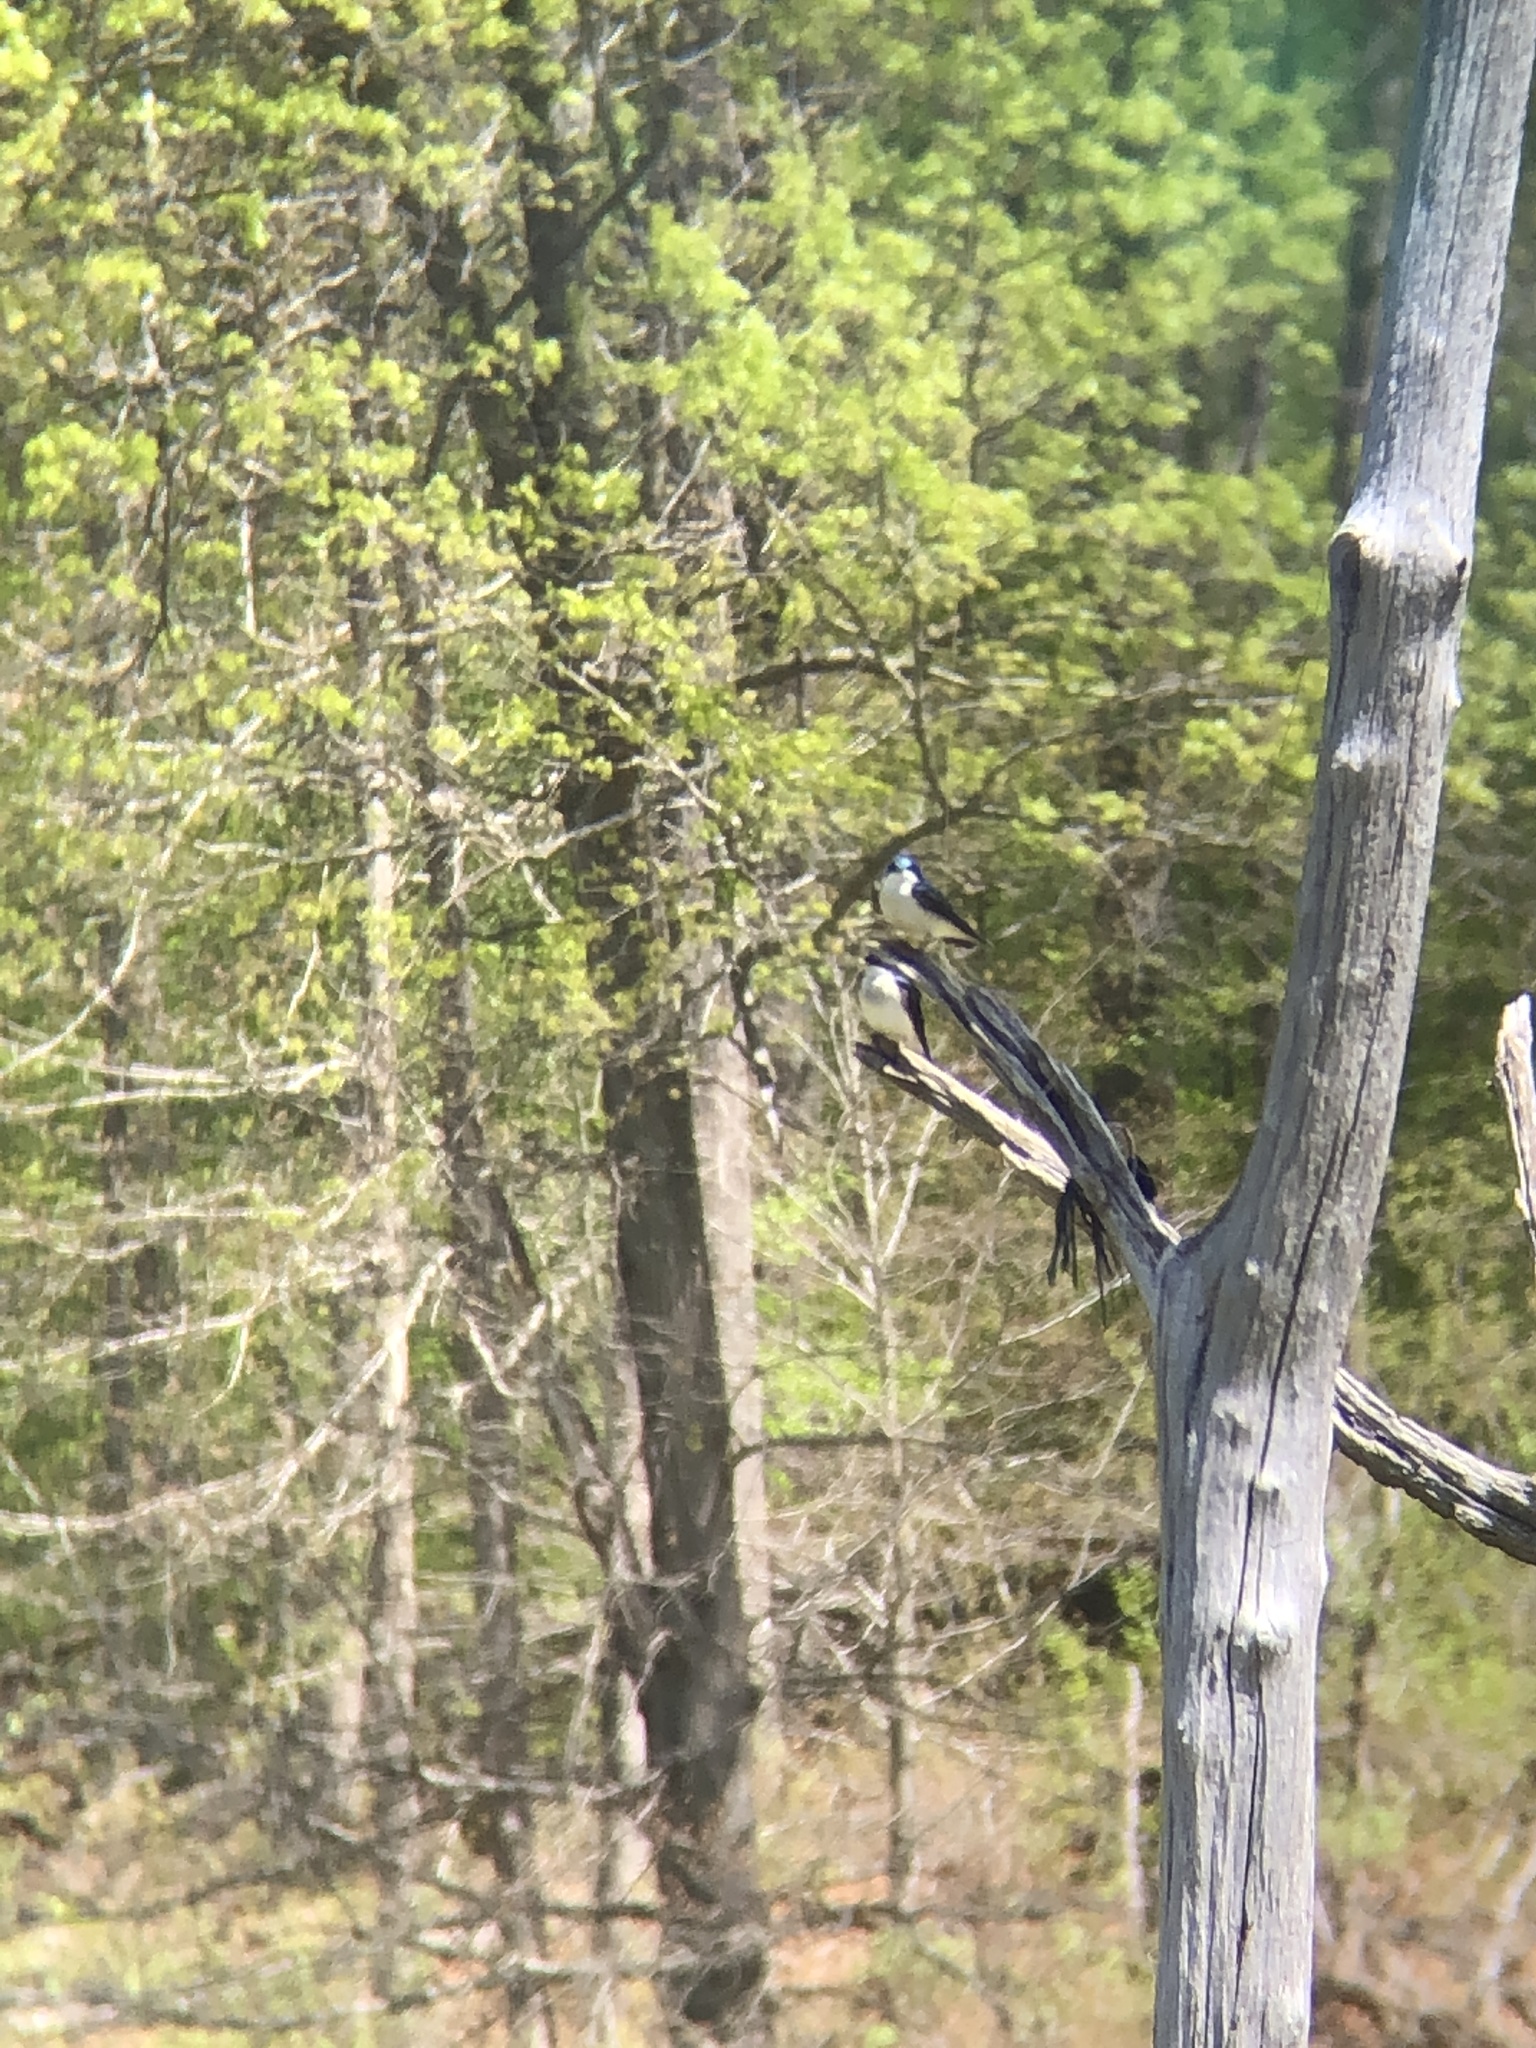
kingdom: Animalia
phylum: Chordata
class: Aves
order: Passeriformes
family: Hirundinidae
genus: Tachycineta
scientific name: Tachycineta bicolor
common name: Tree swallow
